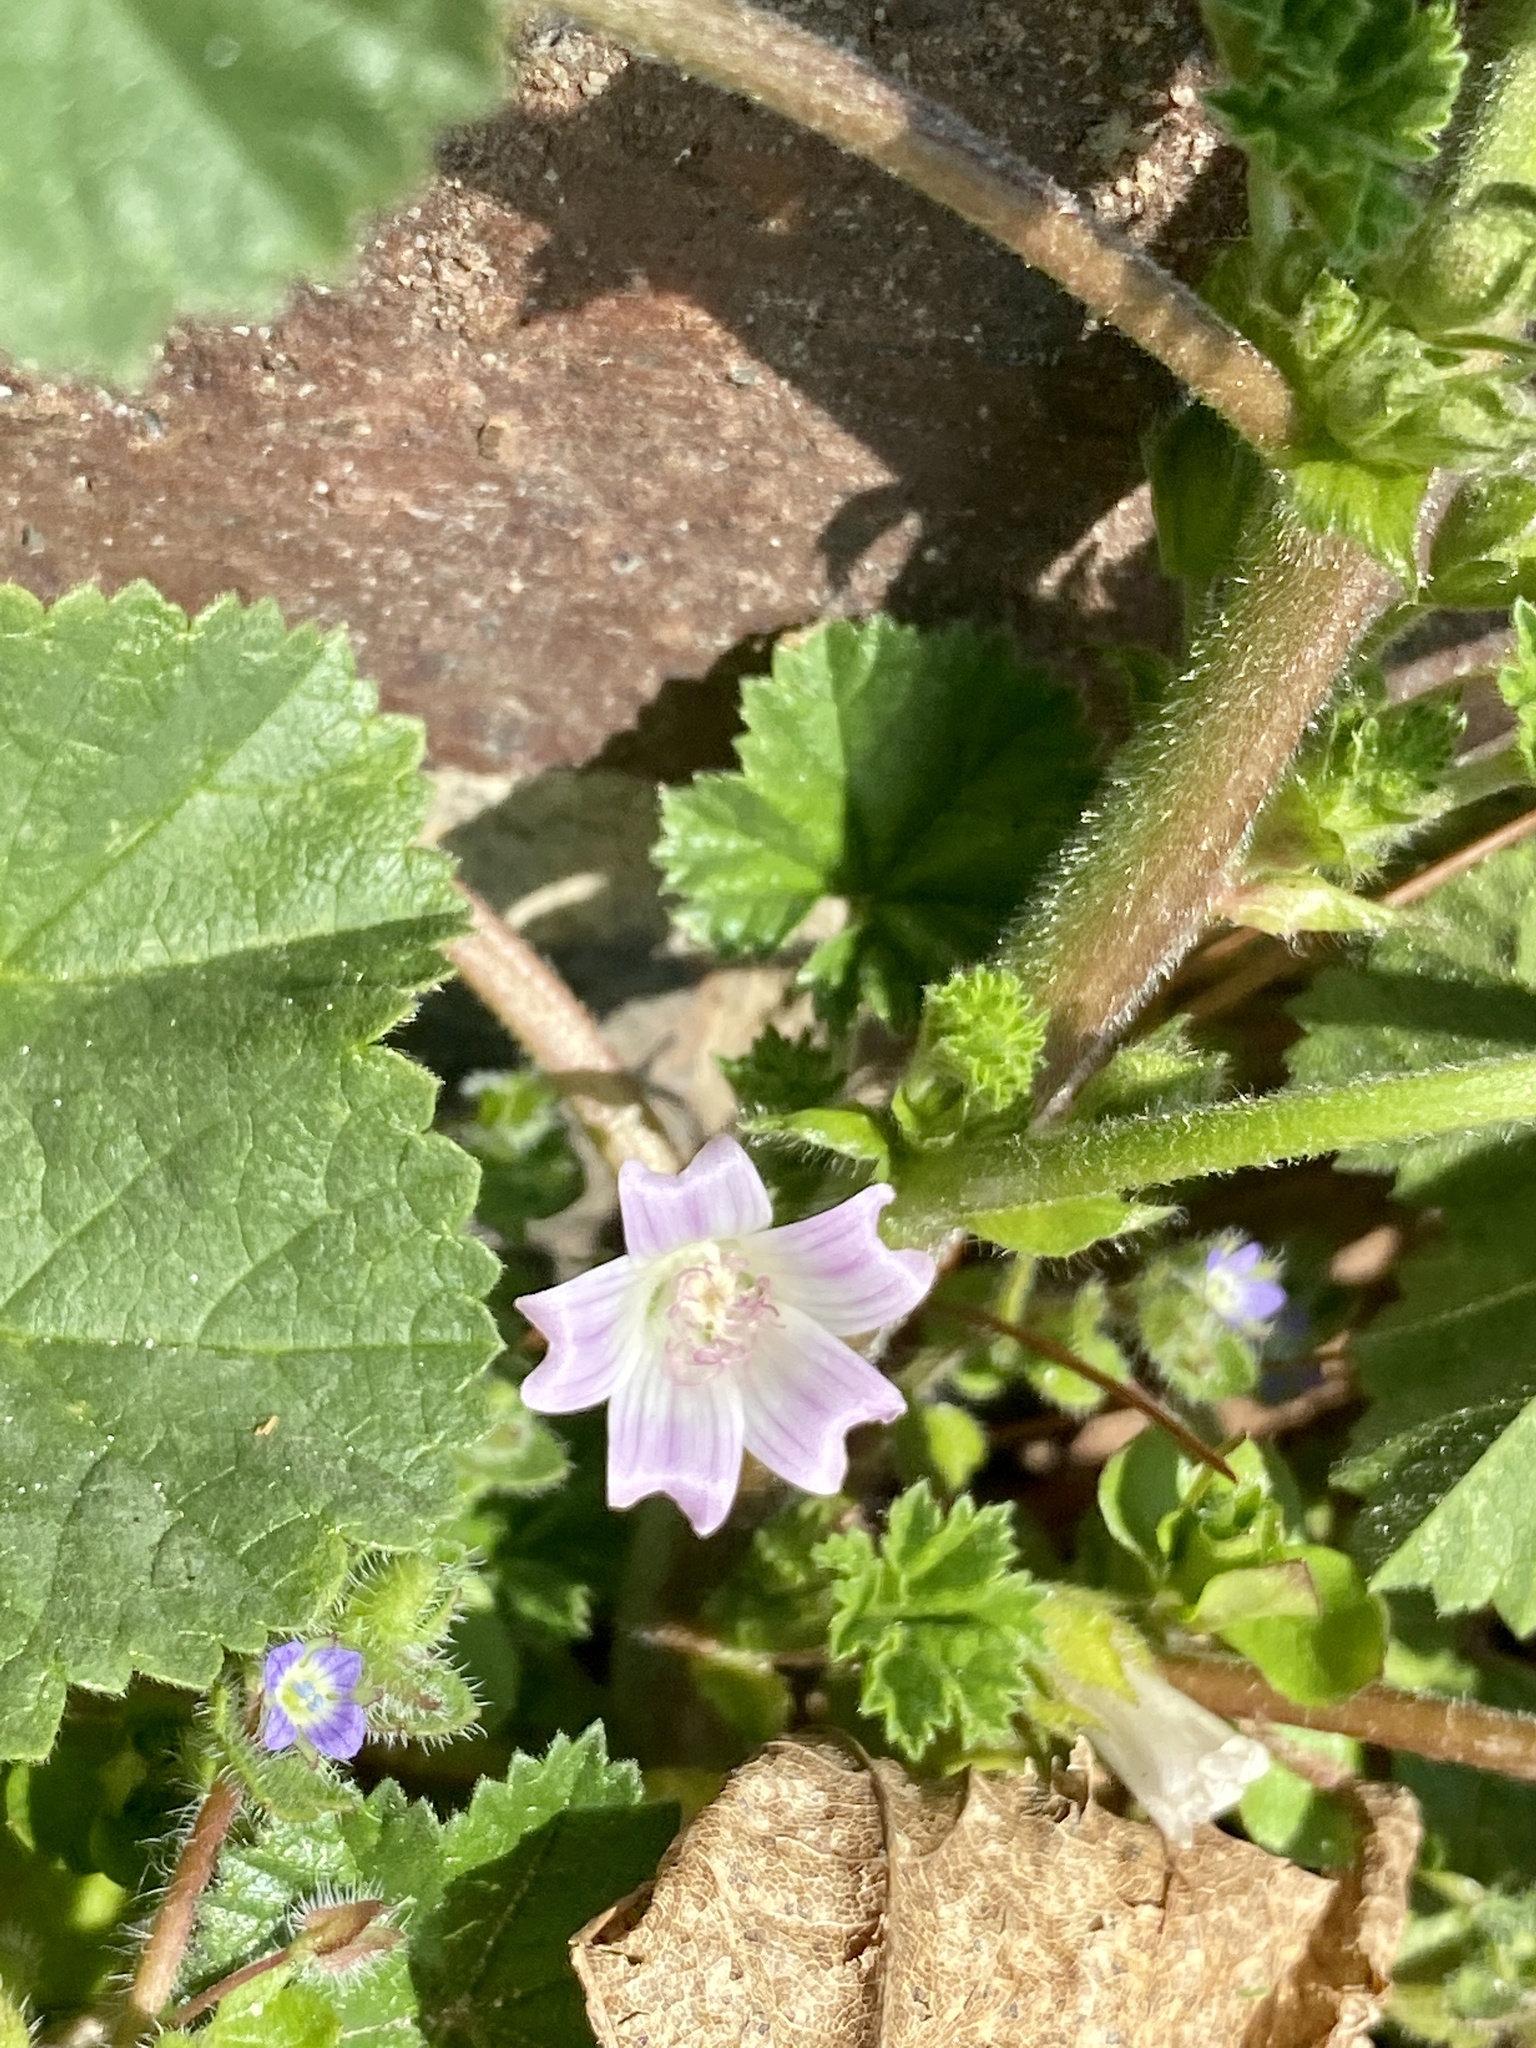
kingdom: Plantae
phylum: Tracheophyta
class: Magnoliopsida
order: Malvales
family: Malvaceae
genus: Malva
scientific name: Malva neglecta
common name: Common mallow
